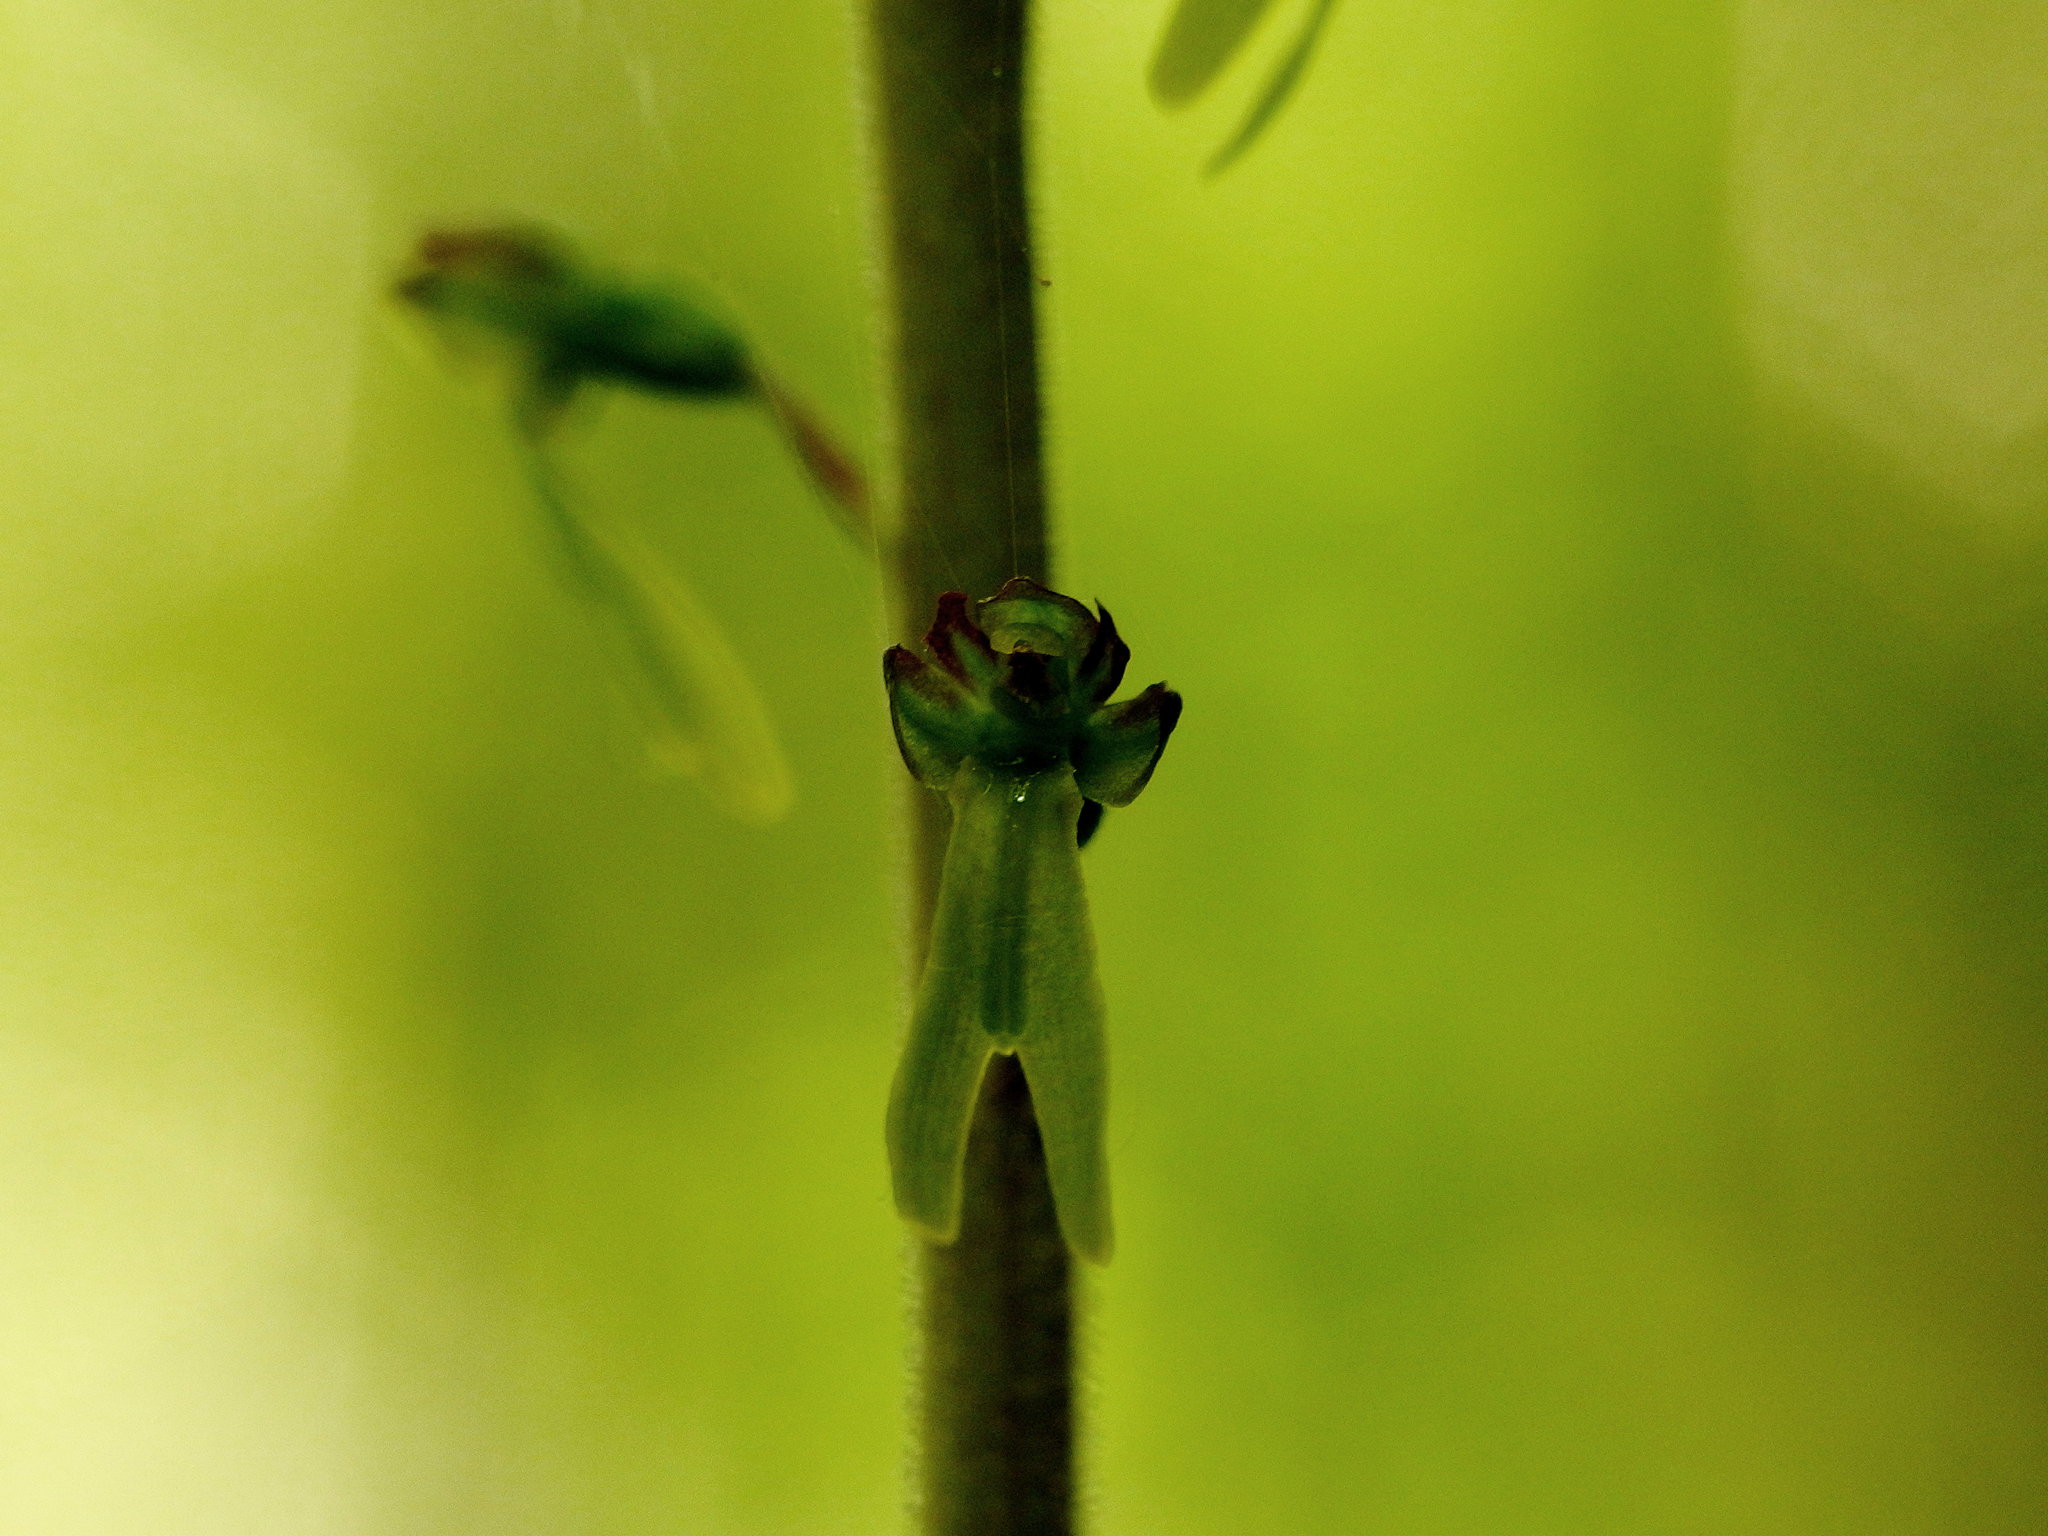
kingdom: Plantae
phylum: Tracheophyta
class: Liliopsida
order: Asparagales
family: Orchidaceae
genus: Neottia
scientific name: Neottia ovata
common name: Common twayblade
